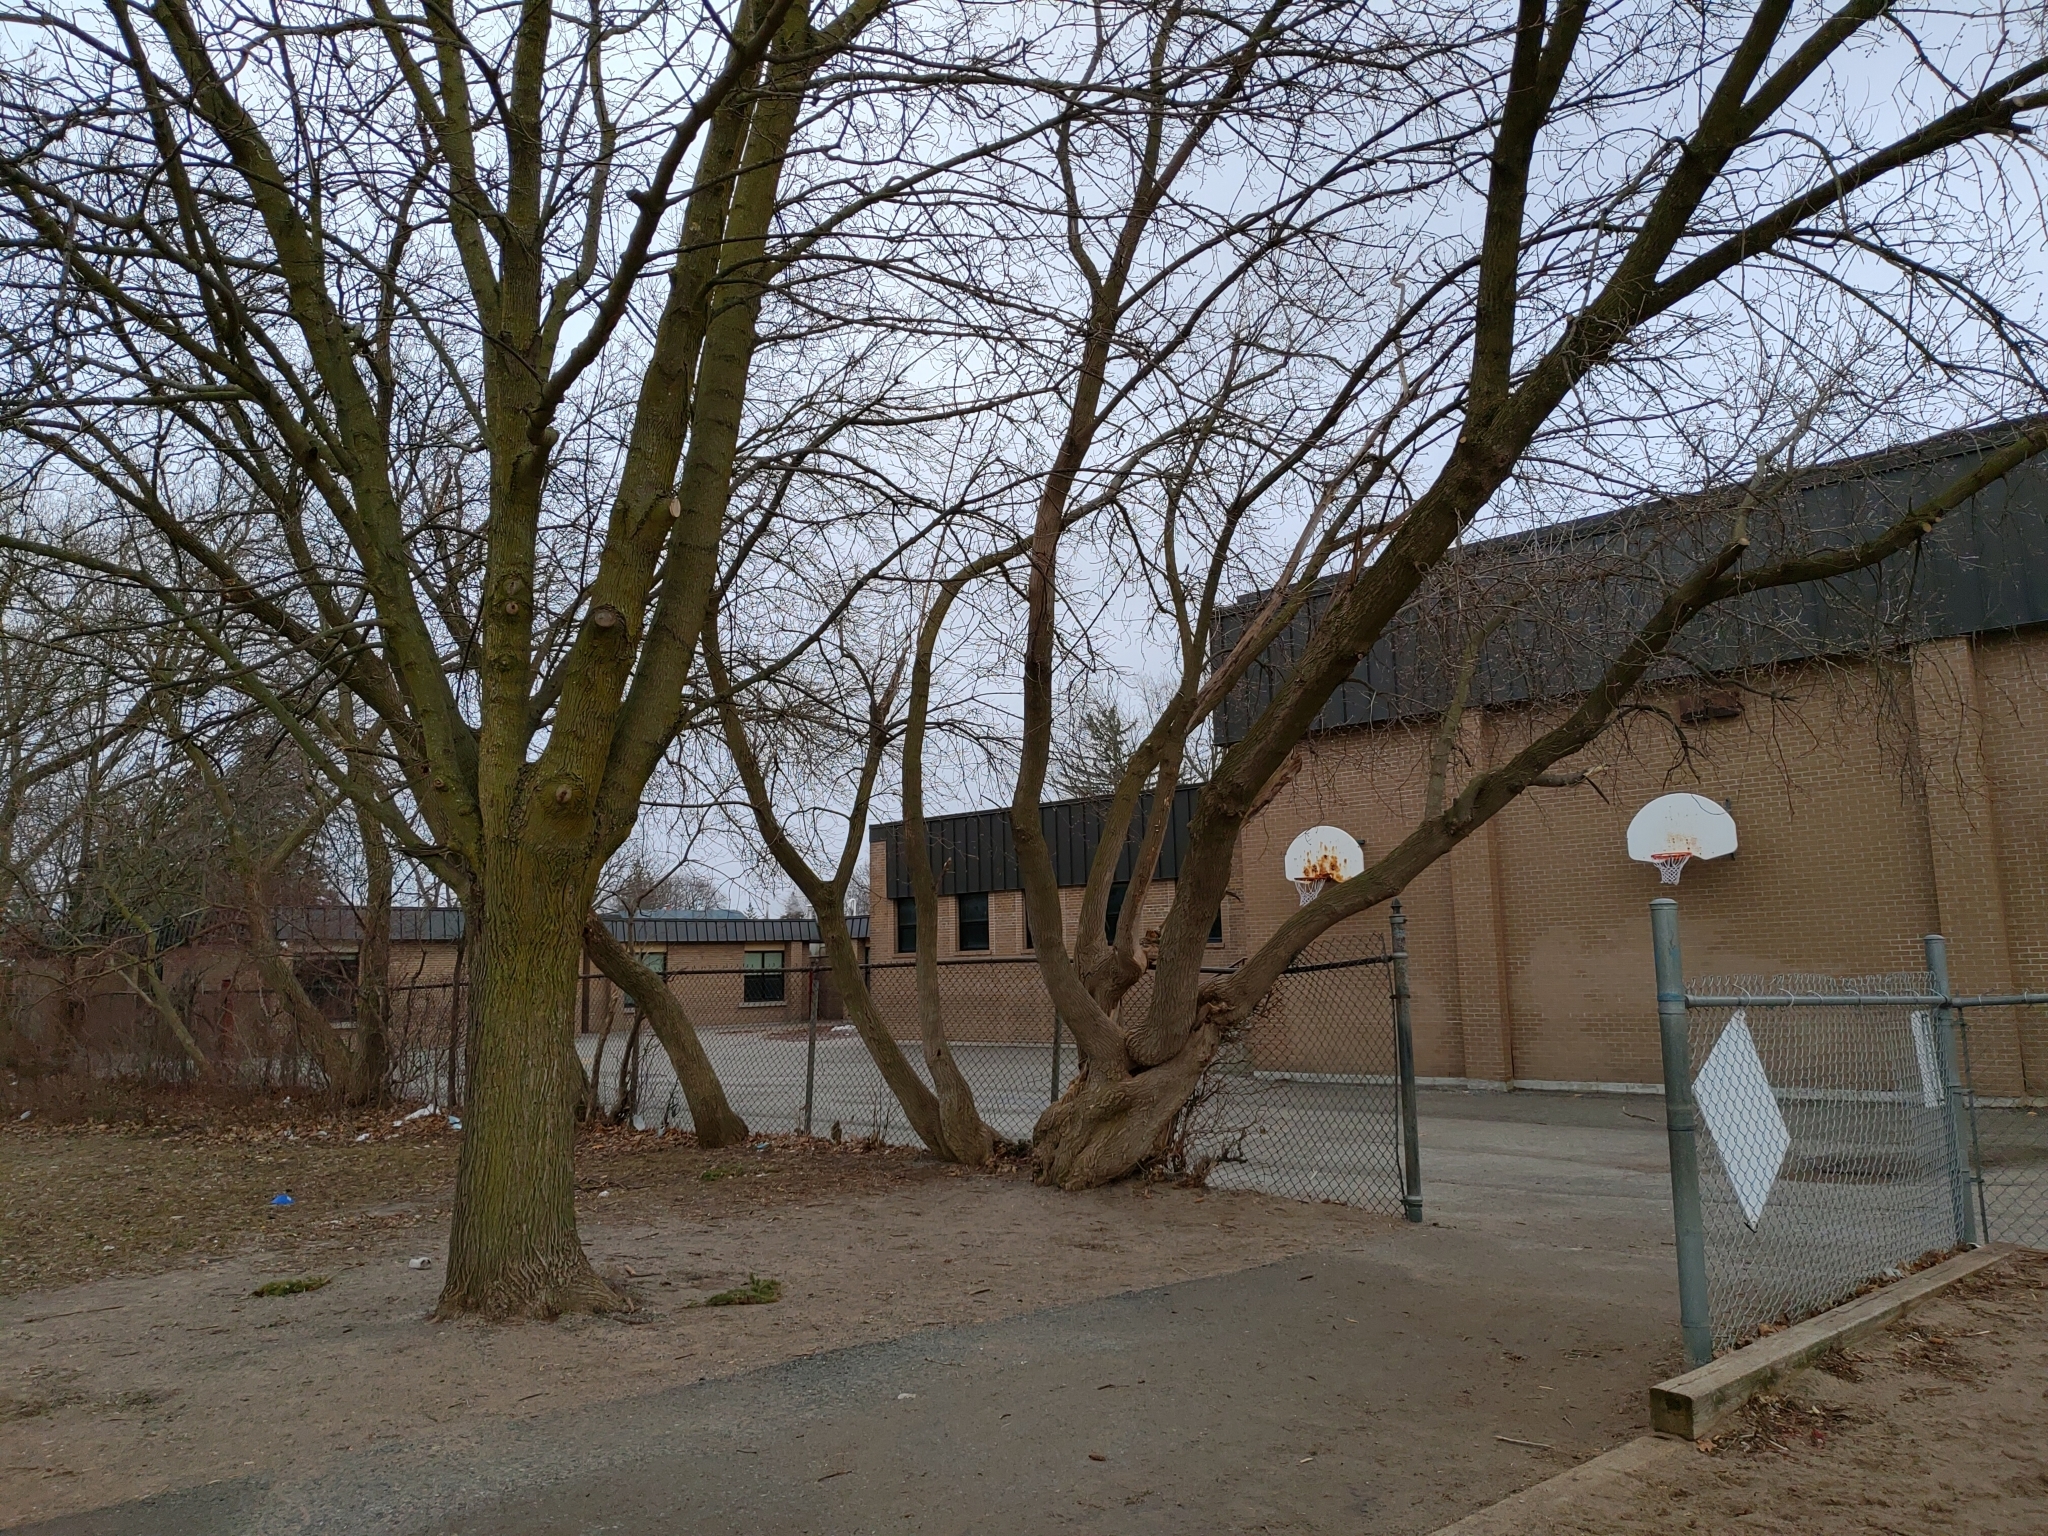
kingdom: Plantae
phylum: Tracheophyta
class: Magnoliopsida
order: Sapindales
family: Sapindaceae
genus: Acer
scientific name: Acer negundo
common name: Ashleaf maple
